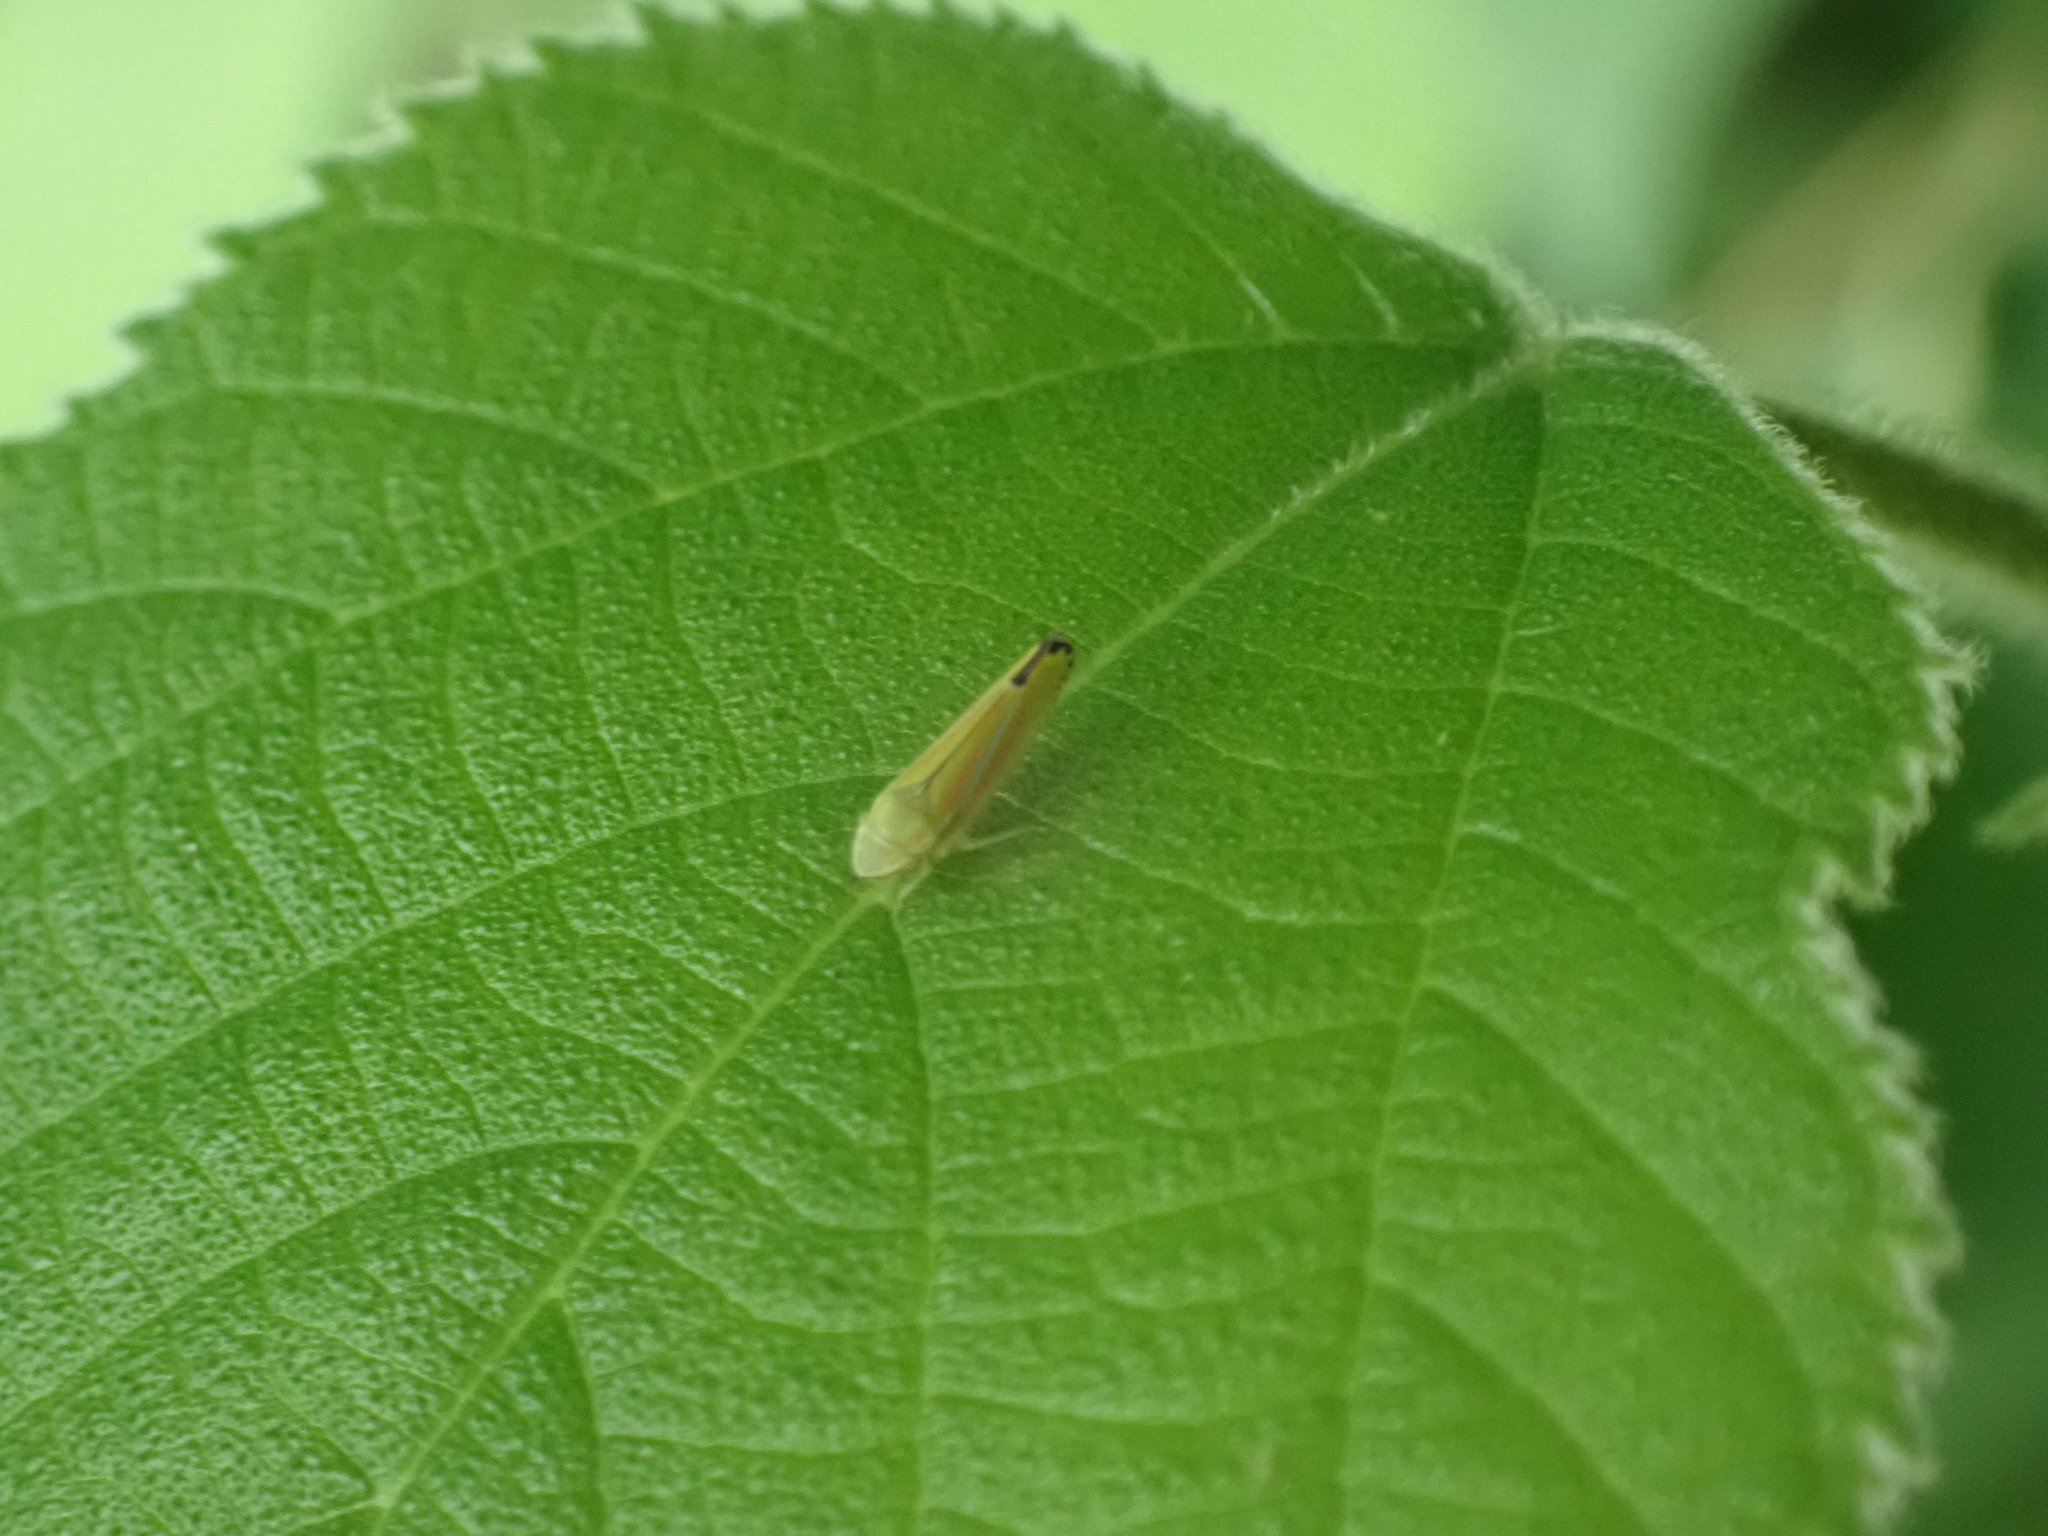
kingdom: Animalia
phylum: Arthropoda
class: Insecta
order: Hemiptera
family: Cicadellidae
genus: Graphocephala
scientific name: Graphocephala versuta
